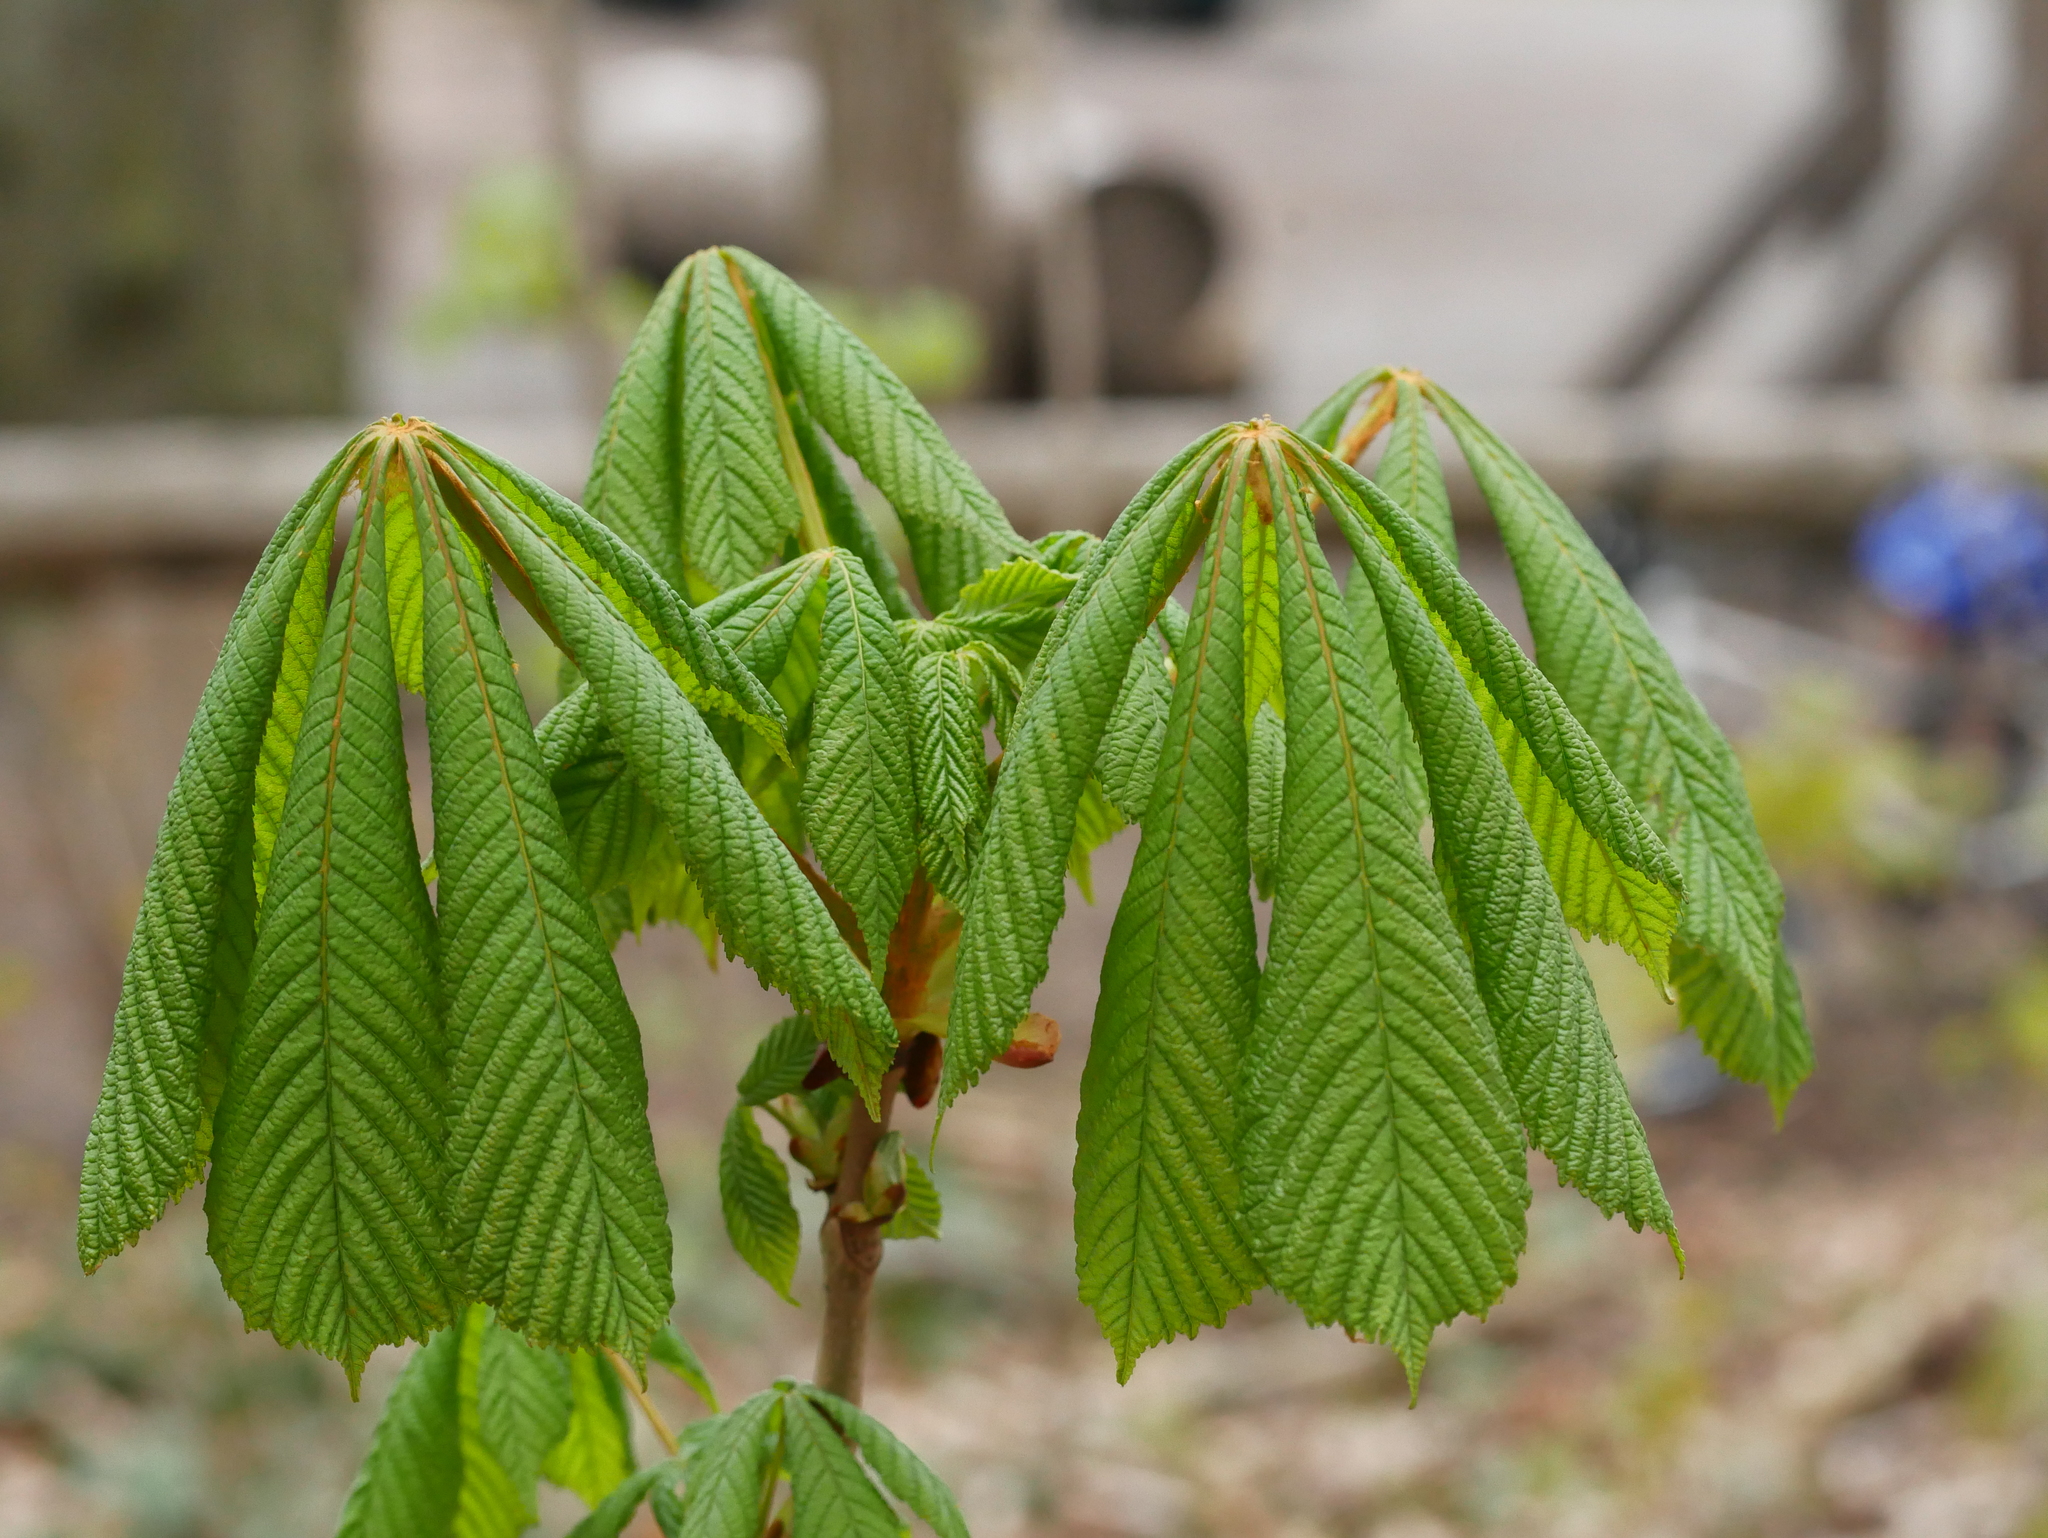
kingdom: Plantae
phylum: Tracheophyta
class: Magnoliopsida
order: Sapindales
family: Sapindaceae
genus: Aesculus
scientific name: Aesculus hippocastanum
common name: Horse-chestnut
